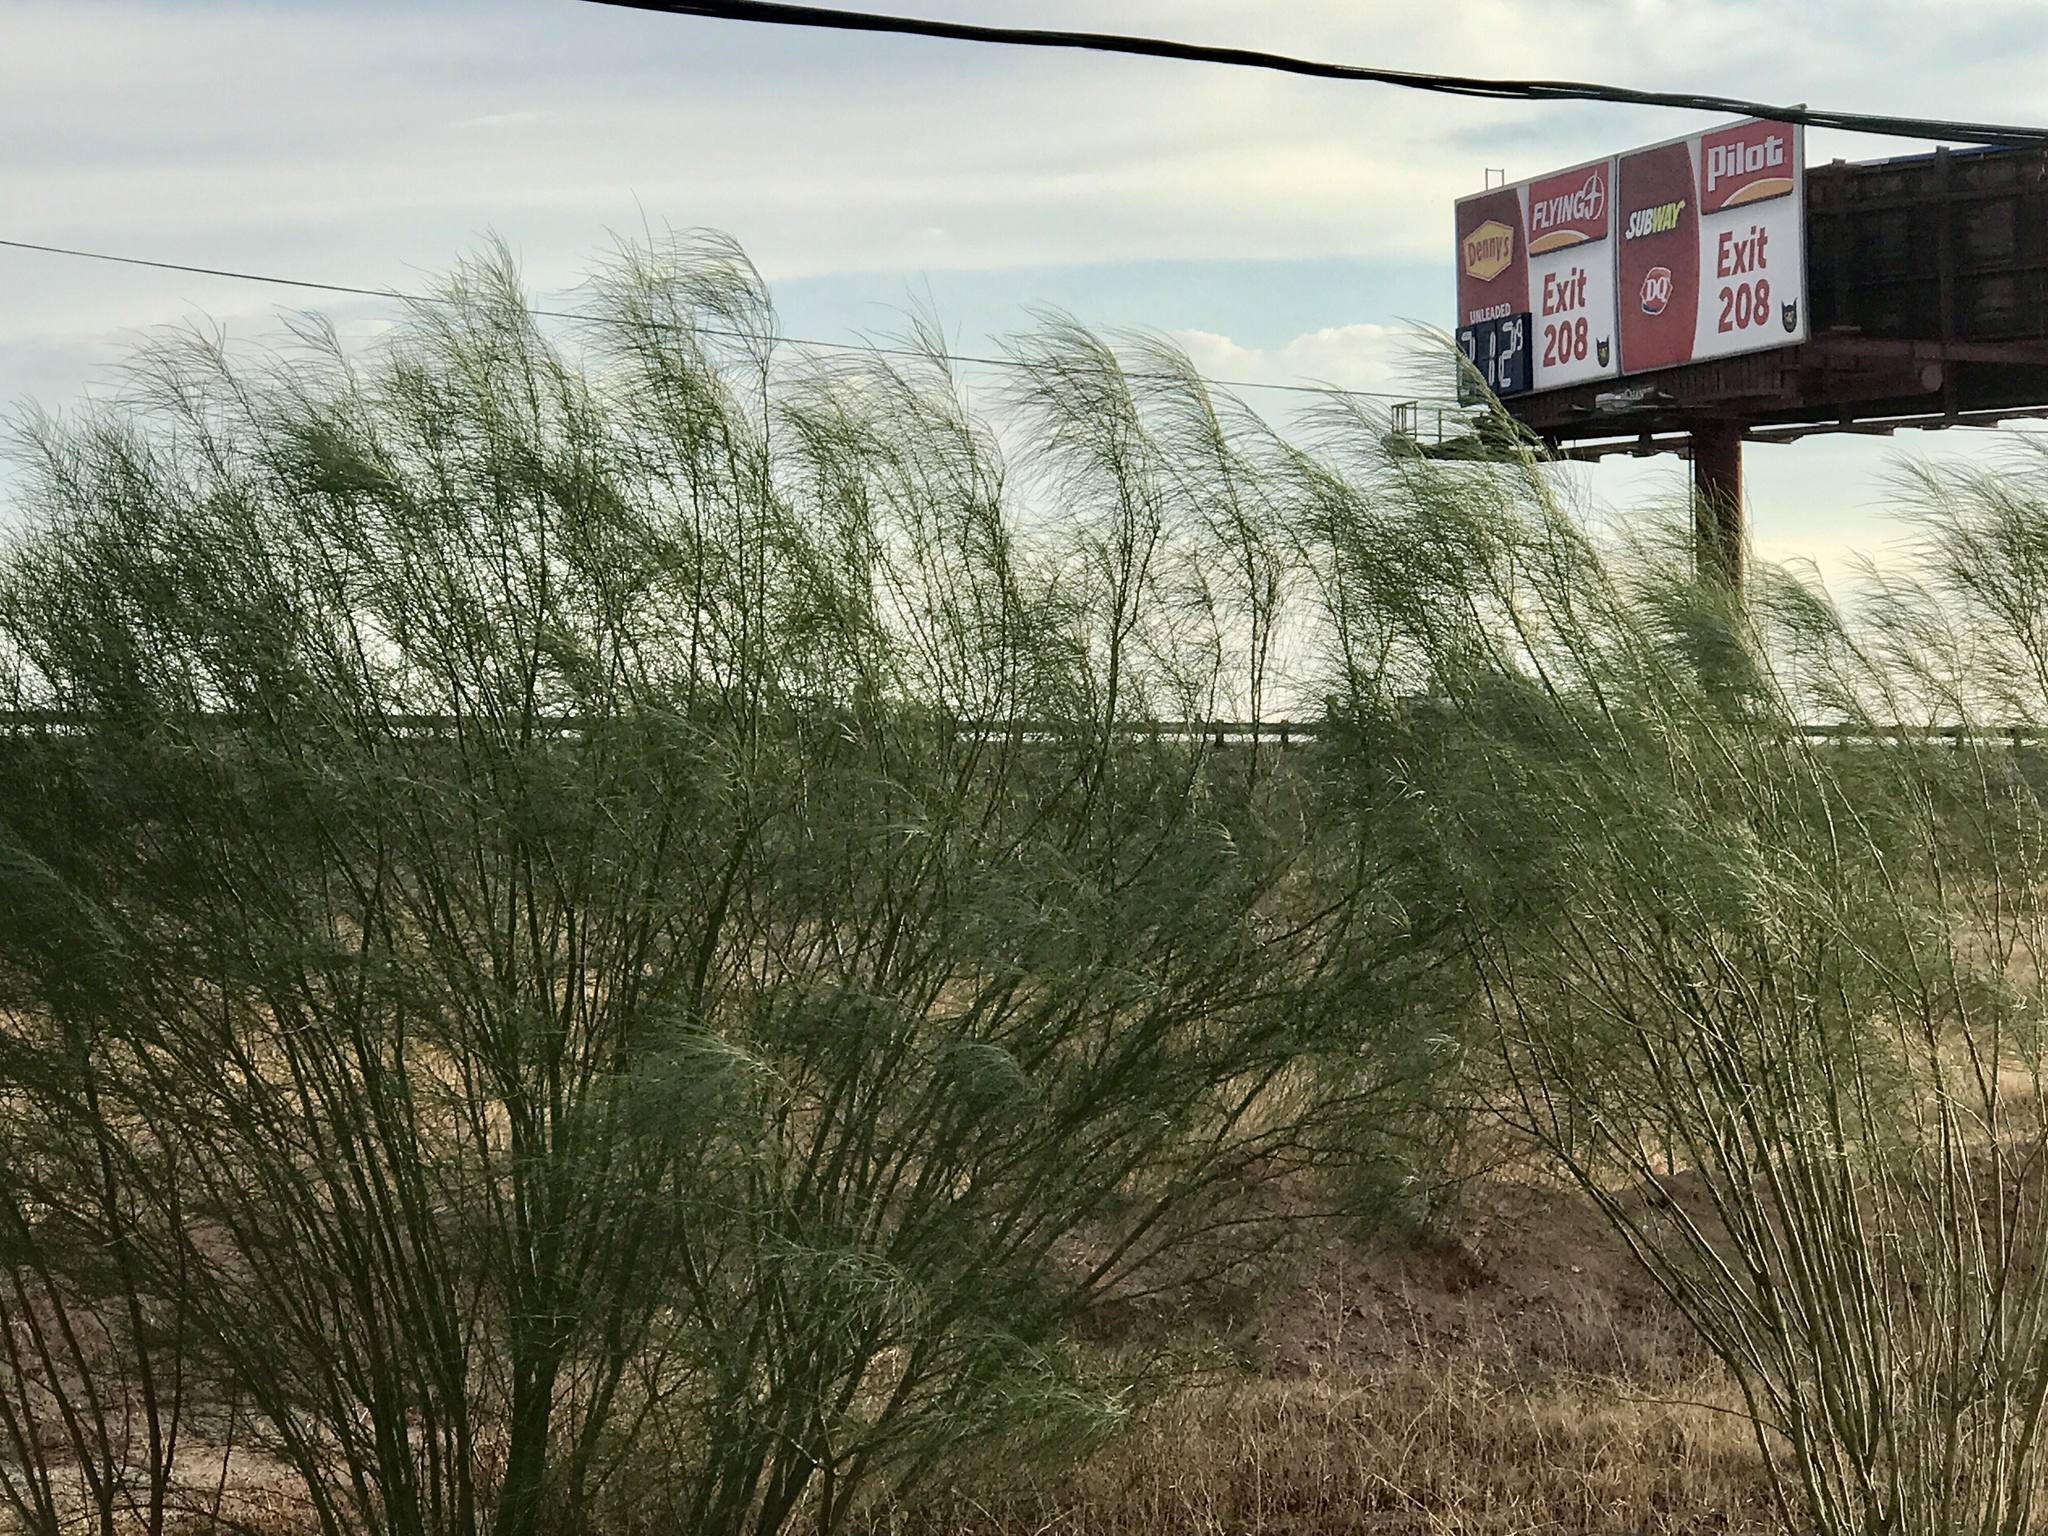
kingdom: Plantae
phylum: Tracheophyta
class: Magnoliopsida
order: Fabales
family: Fabaceae
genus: Parkinsonia
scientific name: Parkinsonia aculeata
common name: Jerusalem thorn
